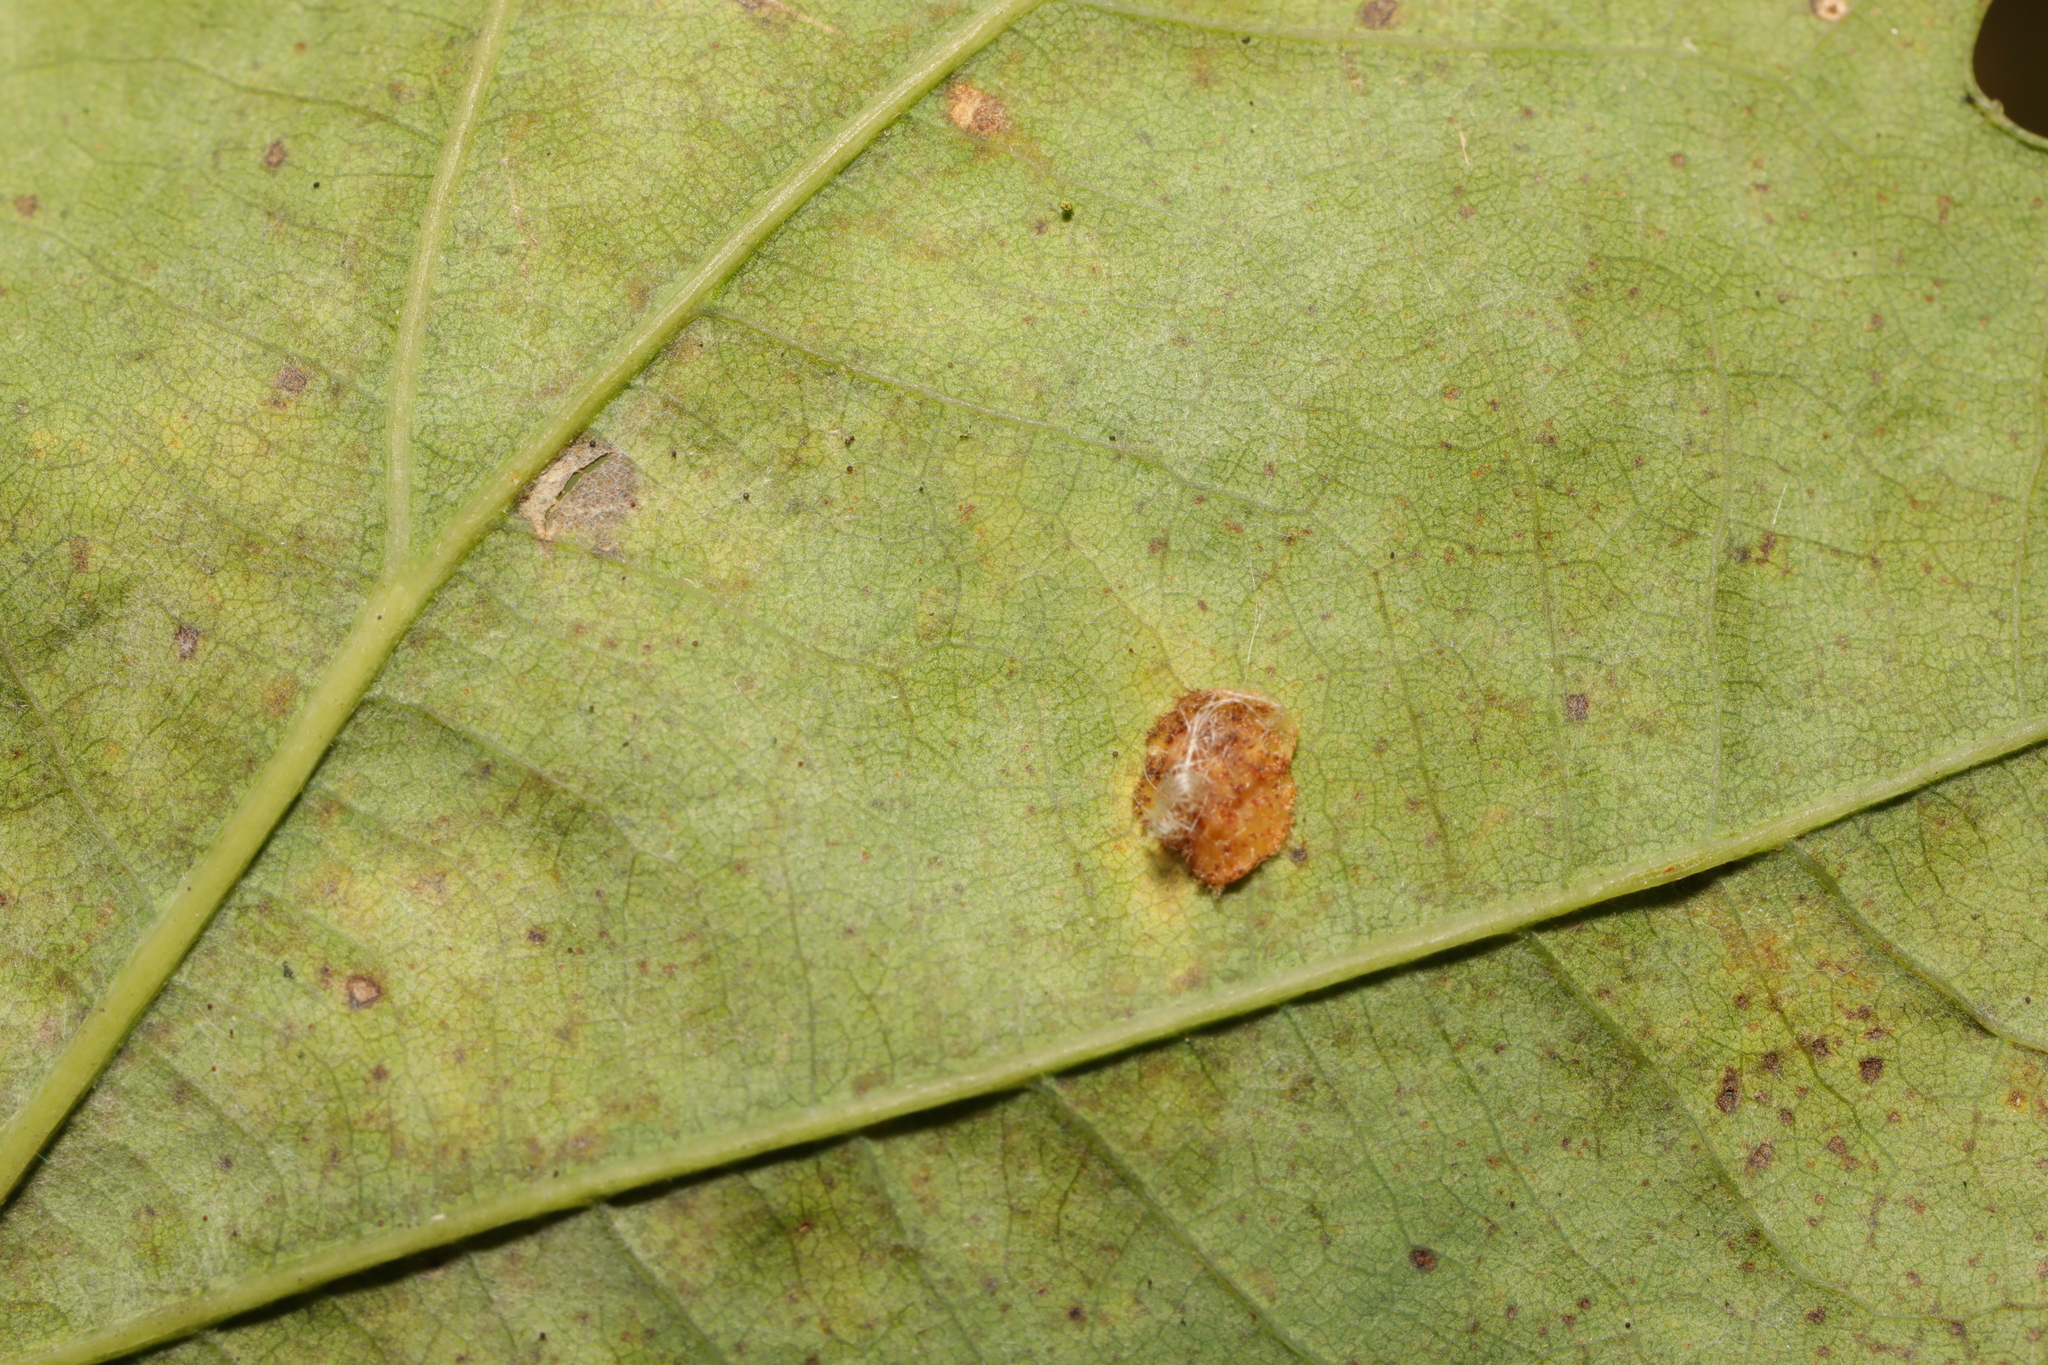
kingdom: Animalia
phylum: Arthropoda
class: Insecta
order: Hymenoptera
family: Cynipidae
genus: Neuroterus
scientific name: Neuroterus quercusbaccarum
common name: Common spangle gall
